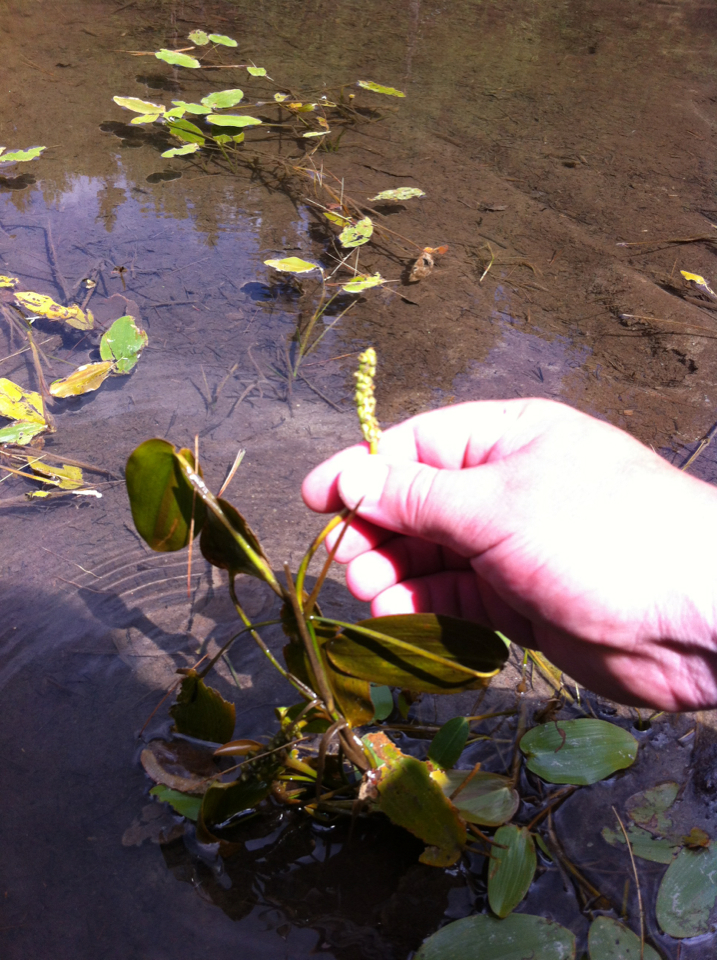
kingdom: Plantae
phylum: Tracheophyta
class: Liliopsida
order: Alismatales
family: Potamogetonaceae
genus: Potamogeton
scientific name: Potamogeton natans
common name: Broad-leaved pondweed
